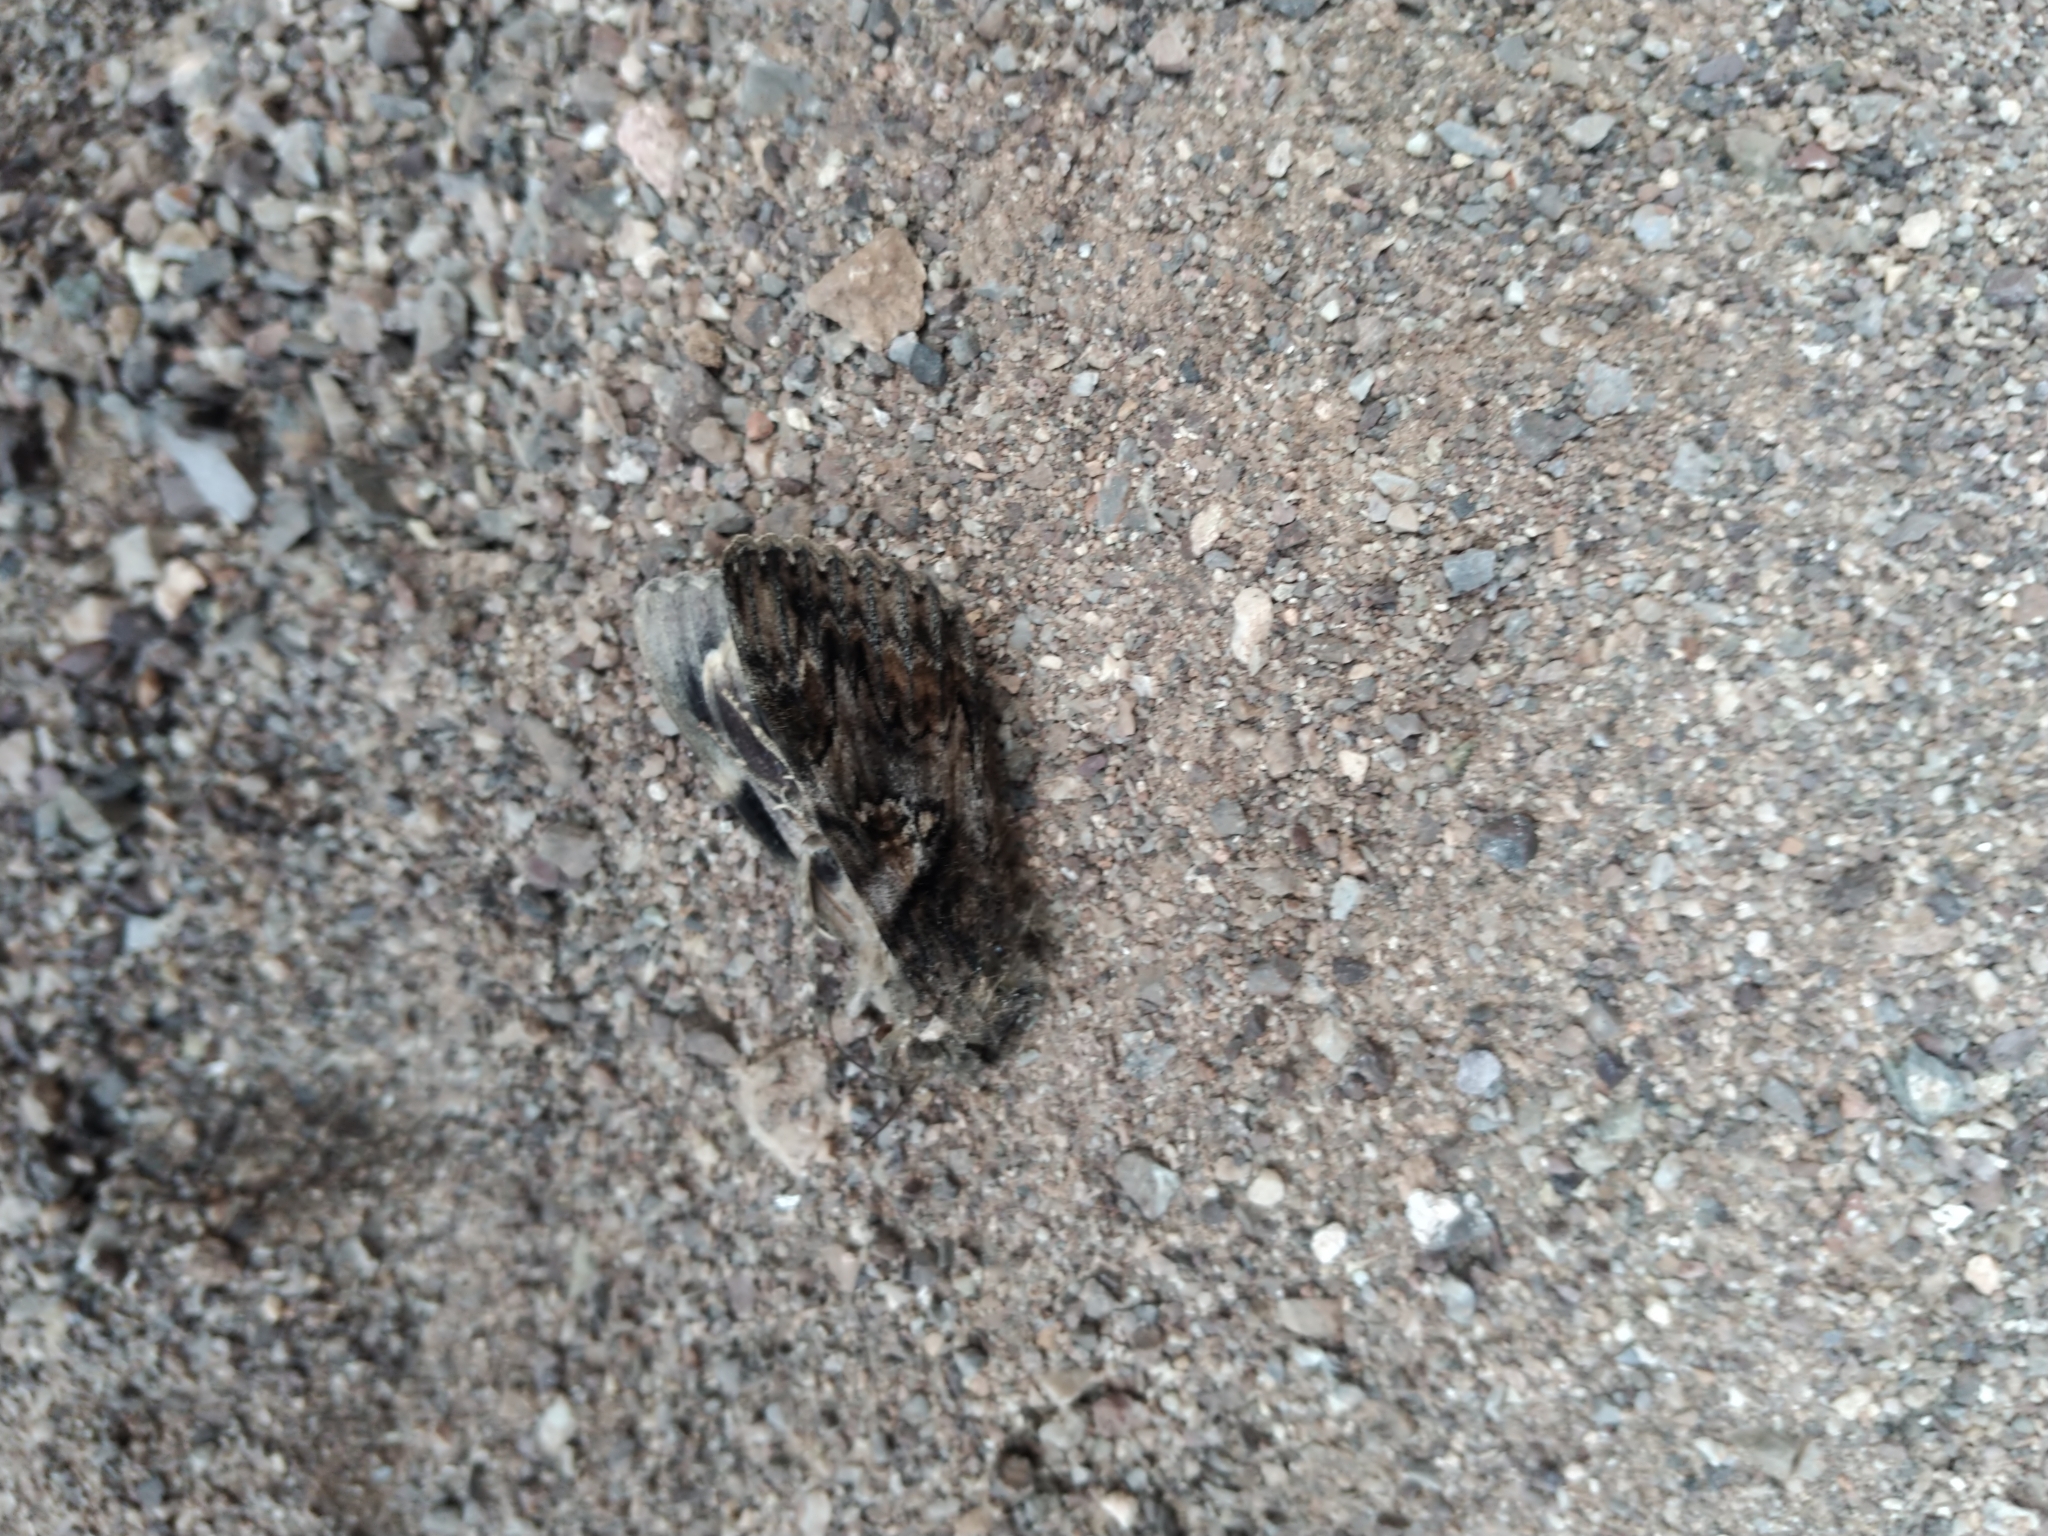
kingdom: Animalia
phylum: Arthropoda
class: Insecta
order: Lepidoptera
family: Erebidae
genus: Catocala
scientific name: Catocala aholibah
